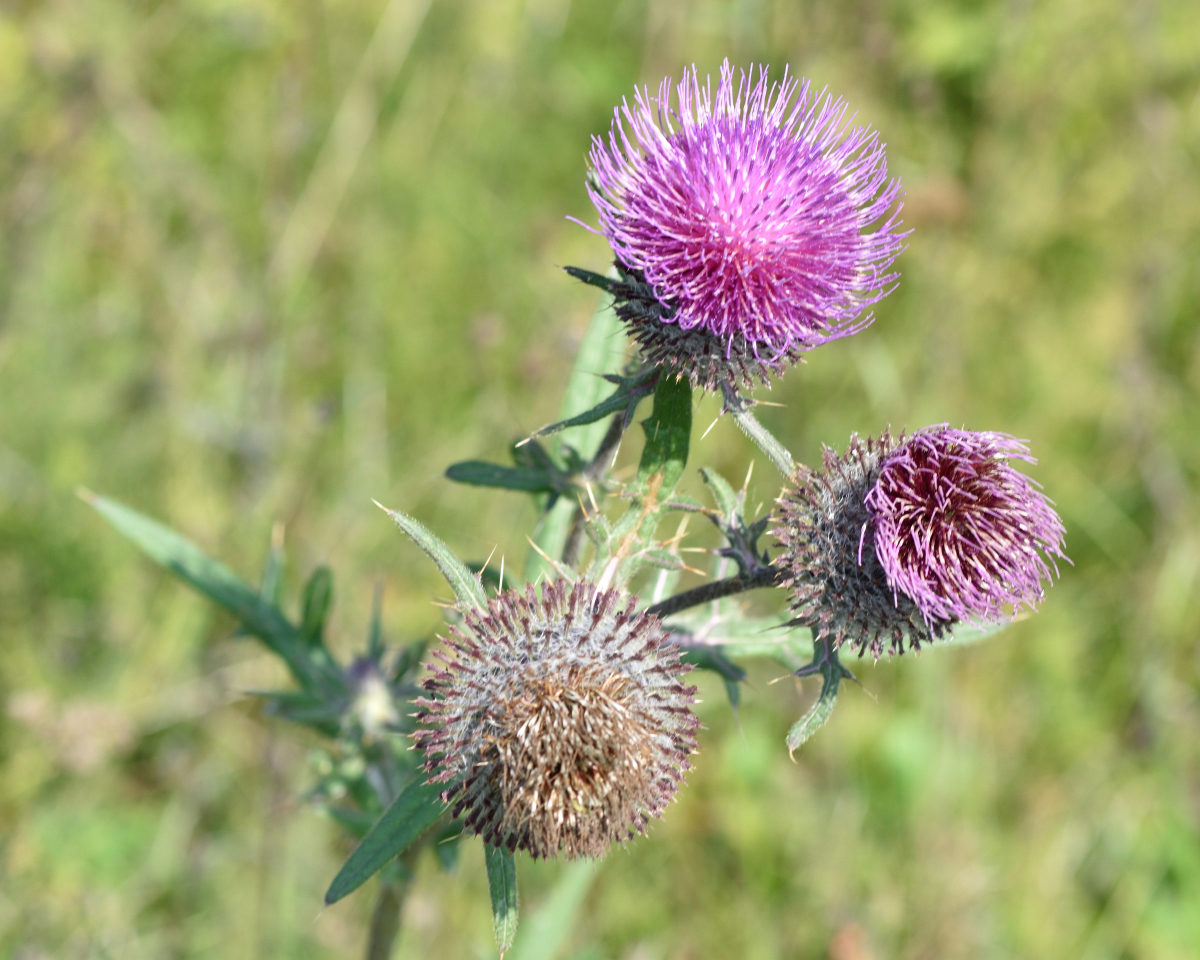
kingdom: Plantae
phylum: Tracheophyta
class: Magnoliopsida
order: Asterales
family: Asteraceae
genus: Lophiolepis
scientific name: Lophiolepis decussata
